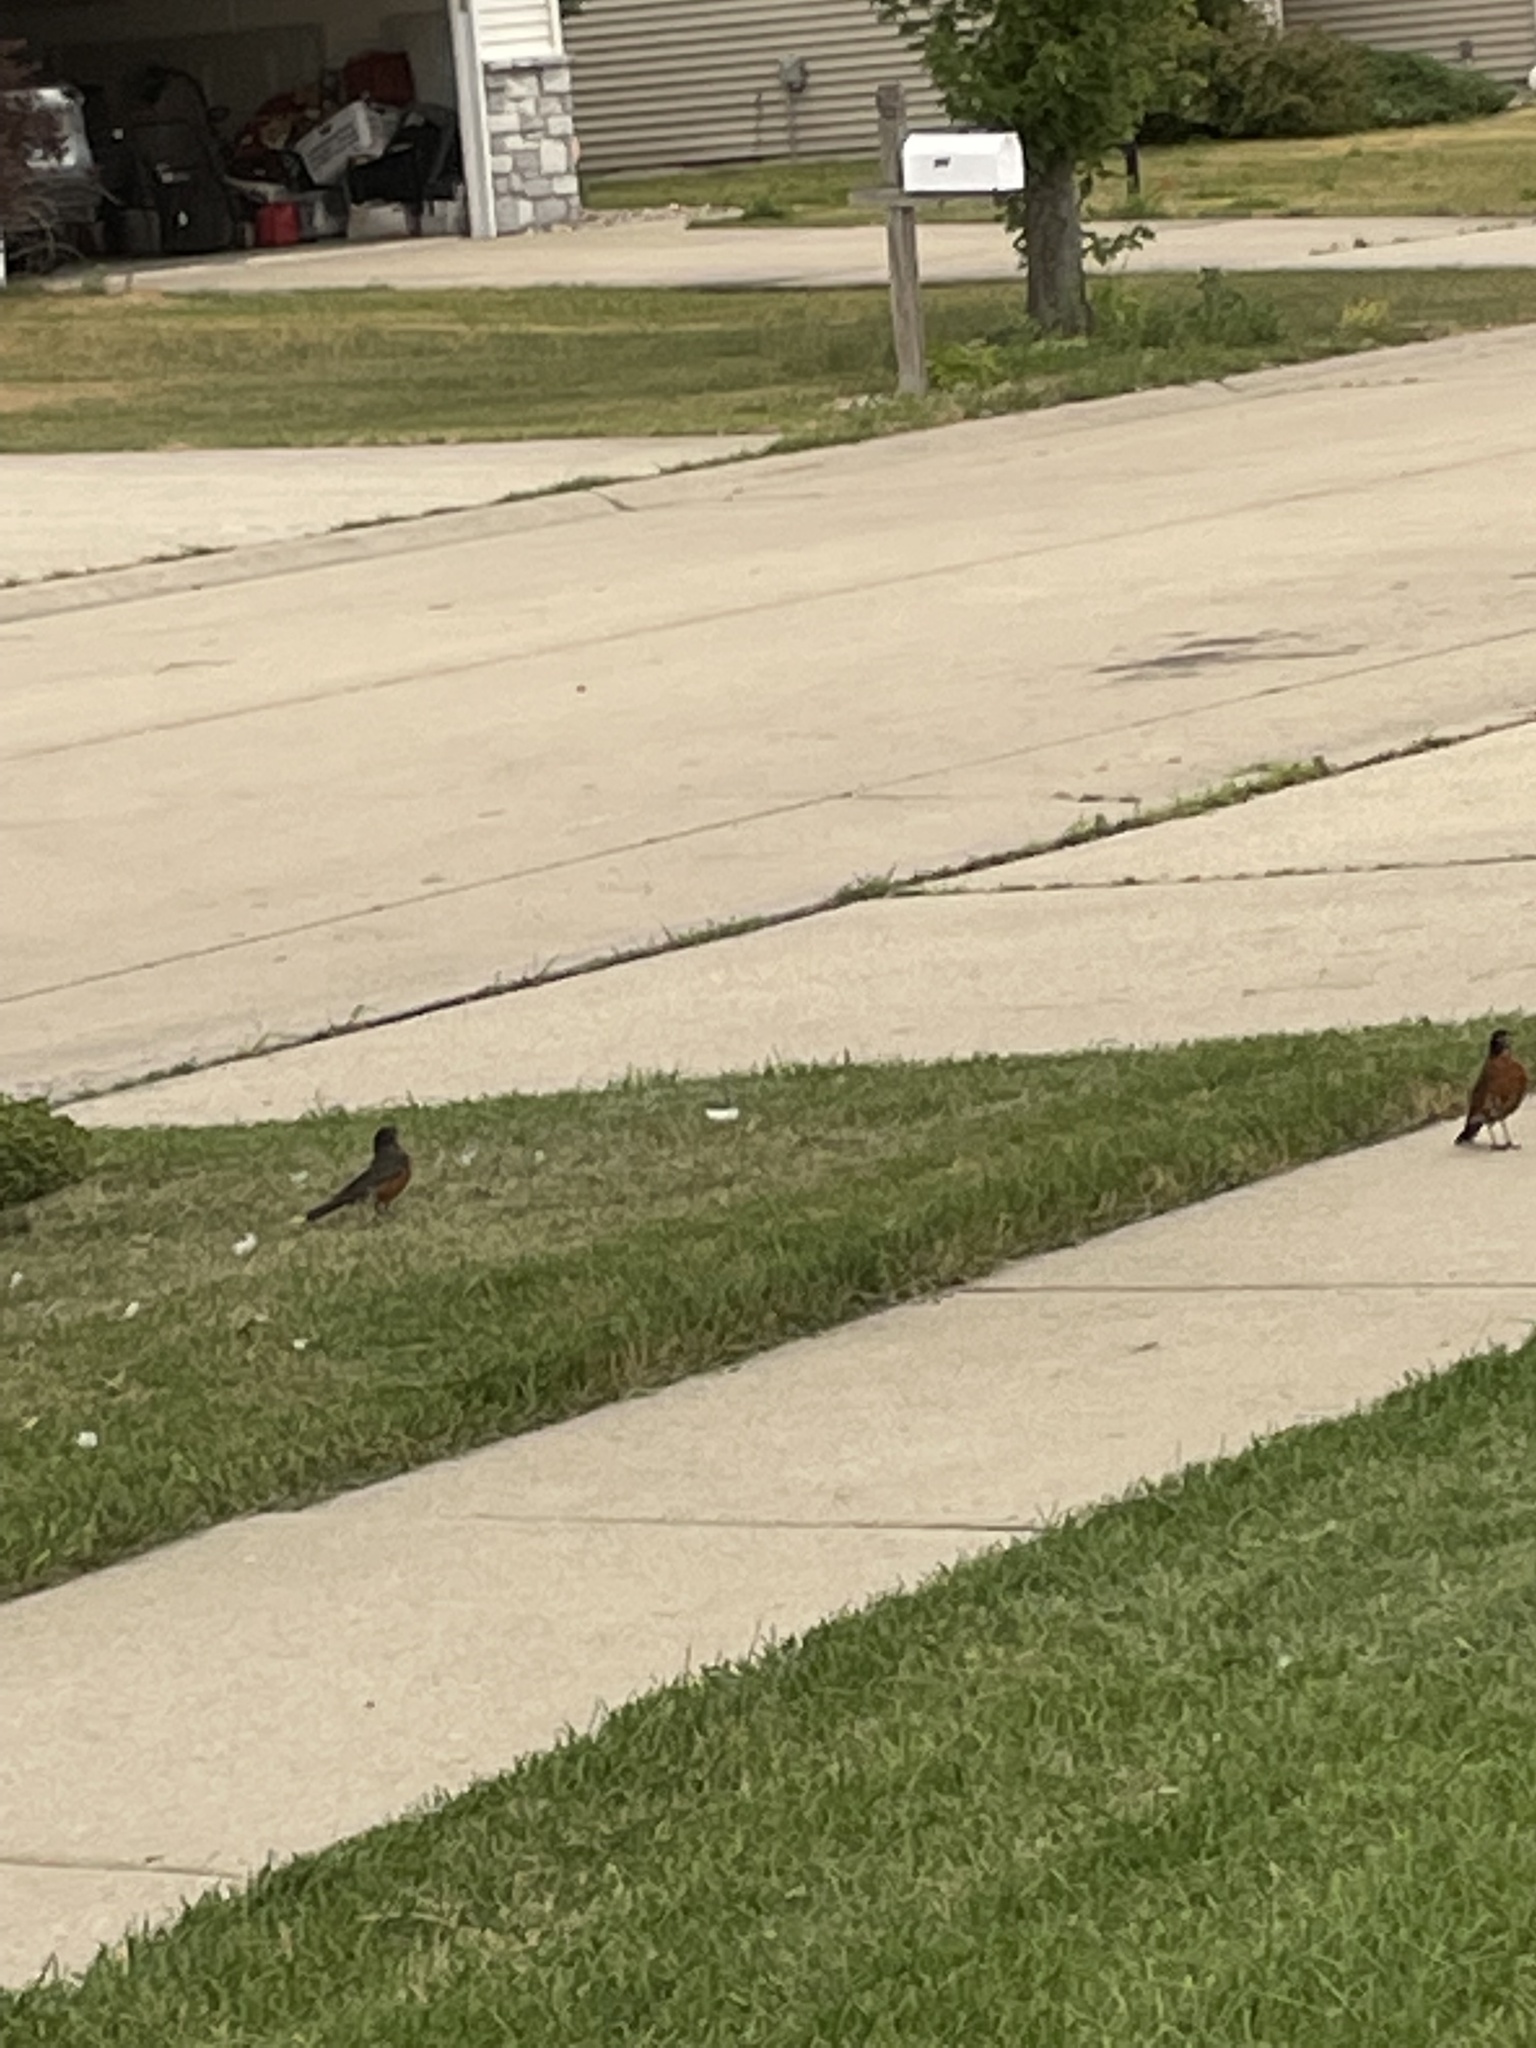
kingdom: Animalia
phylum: Chordata
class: Aves
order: Passeriformes
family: Turdidae
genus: Turdus
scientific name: Turdus migratorius
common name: American robin
